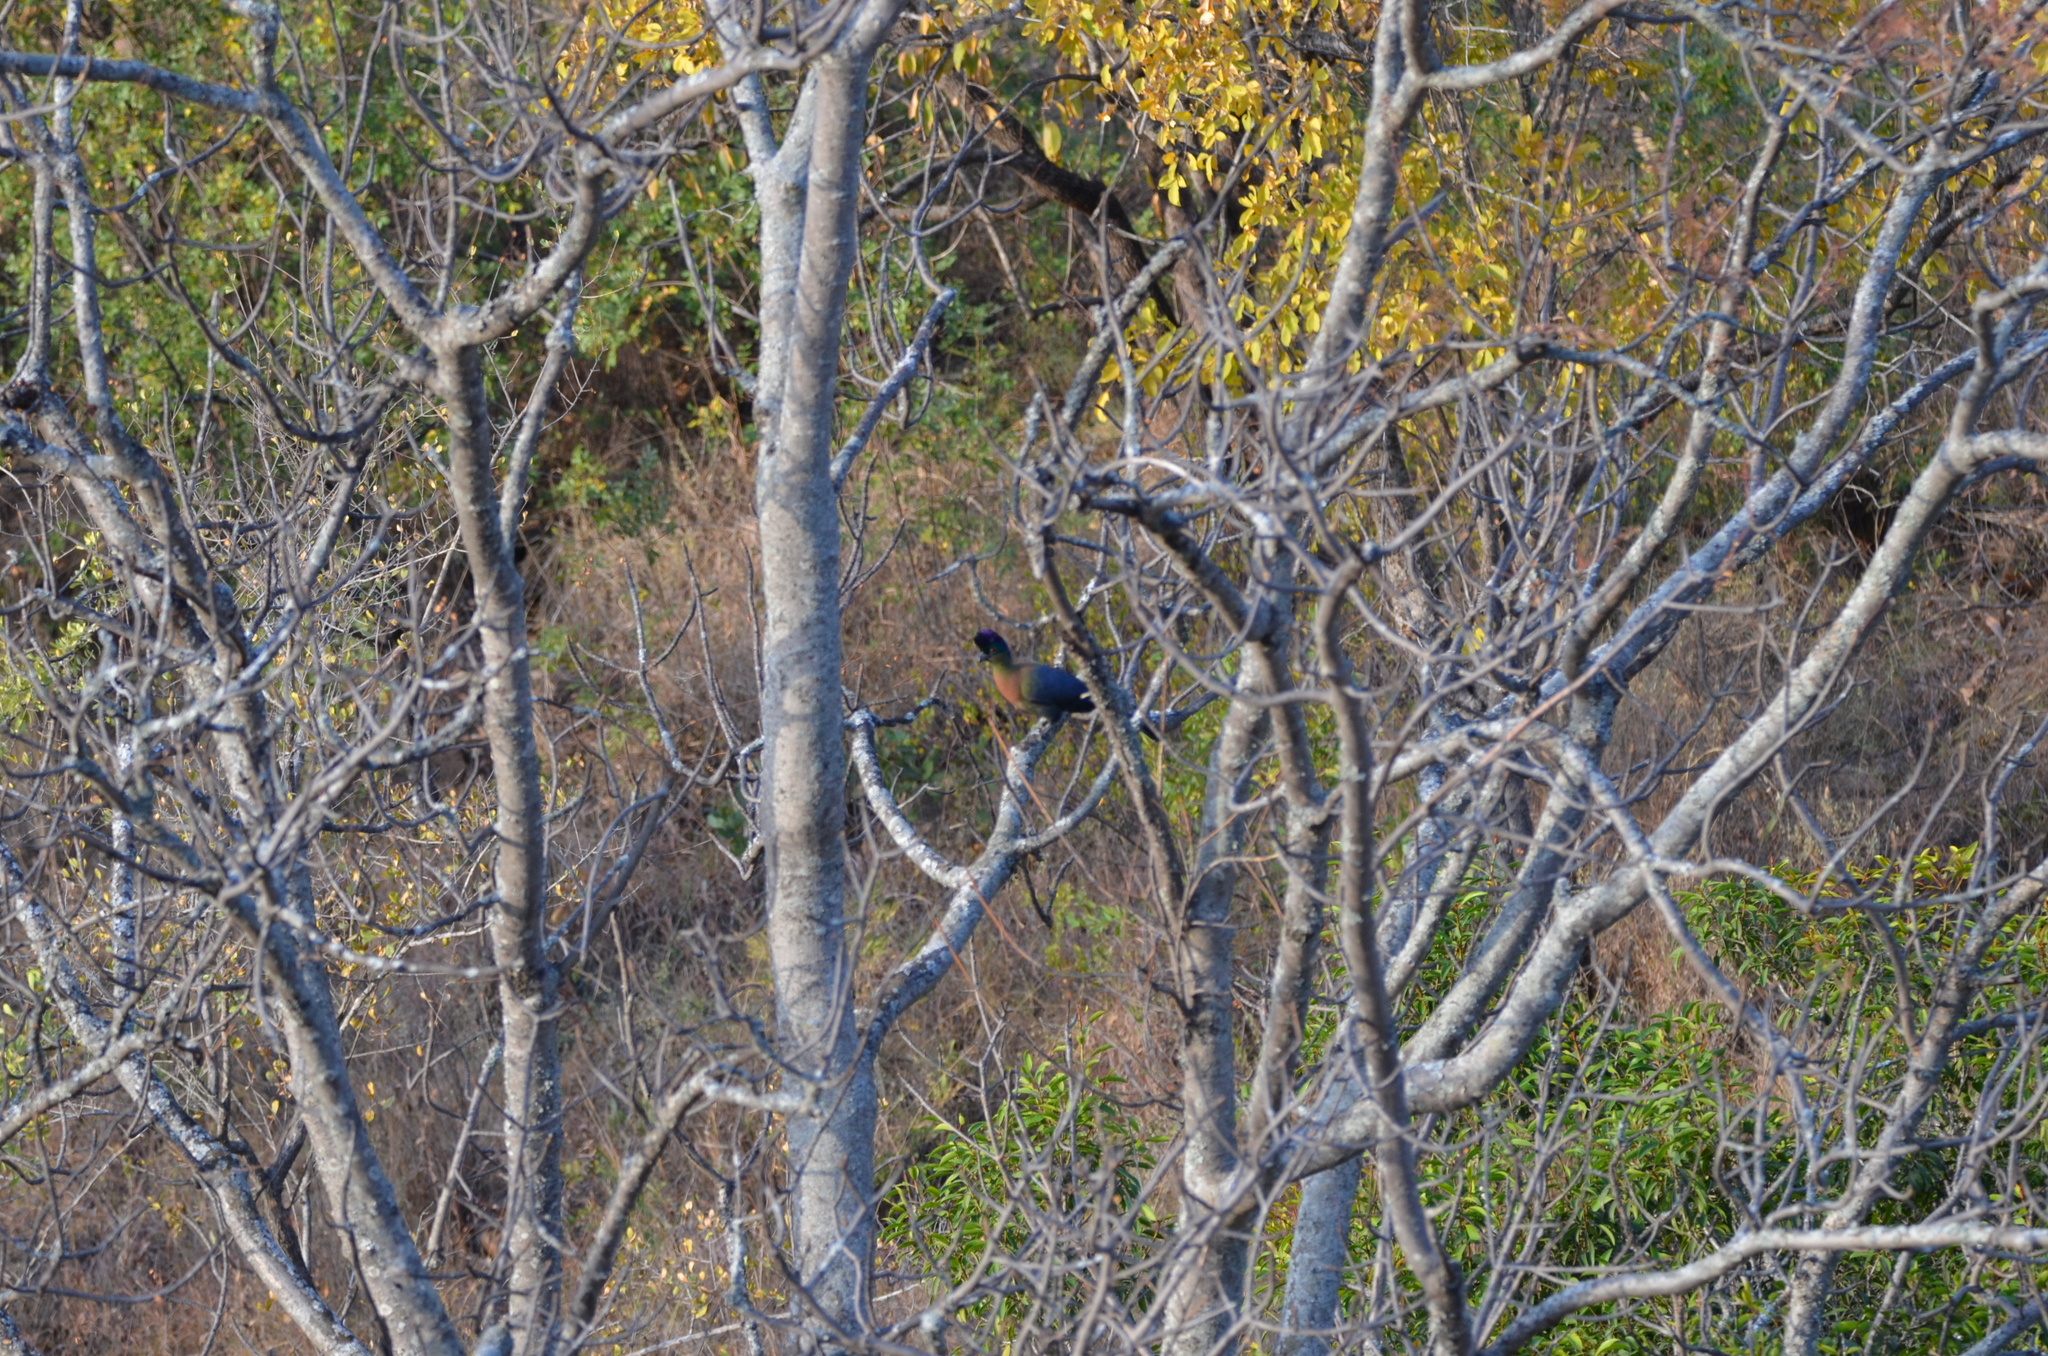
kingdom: Animalia
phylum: Chordata
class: Aves
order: Musophagiformes
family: Musophagidae
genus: Tauraco
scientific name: Tauraco porphyreolophus
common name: Purple-crested turaco
